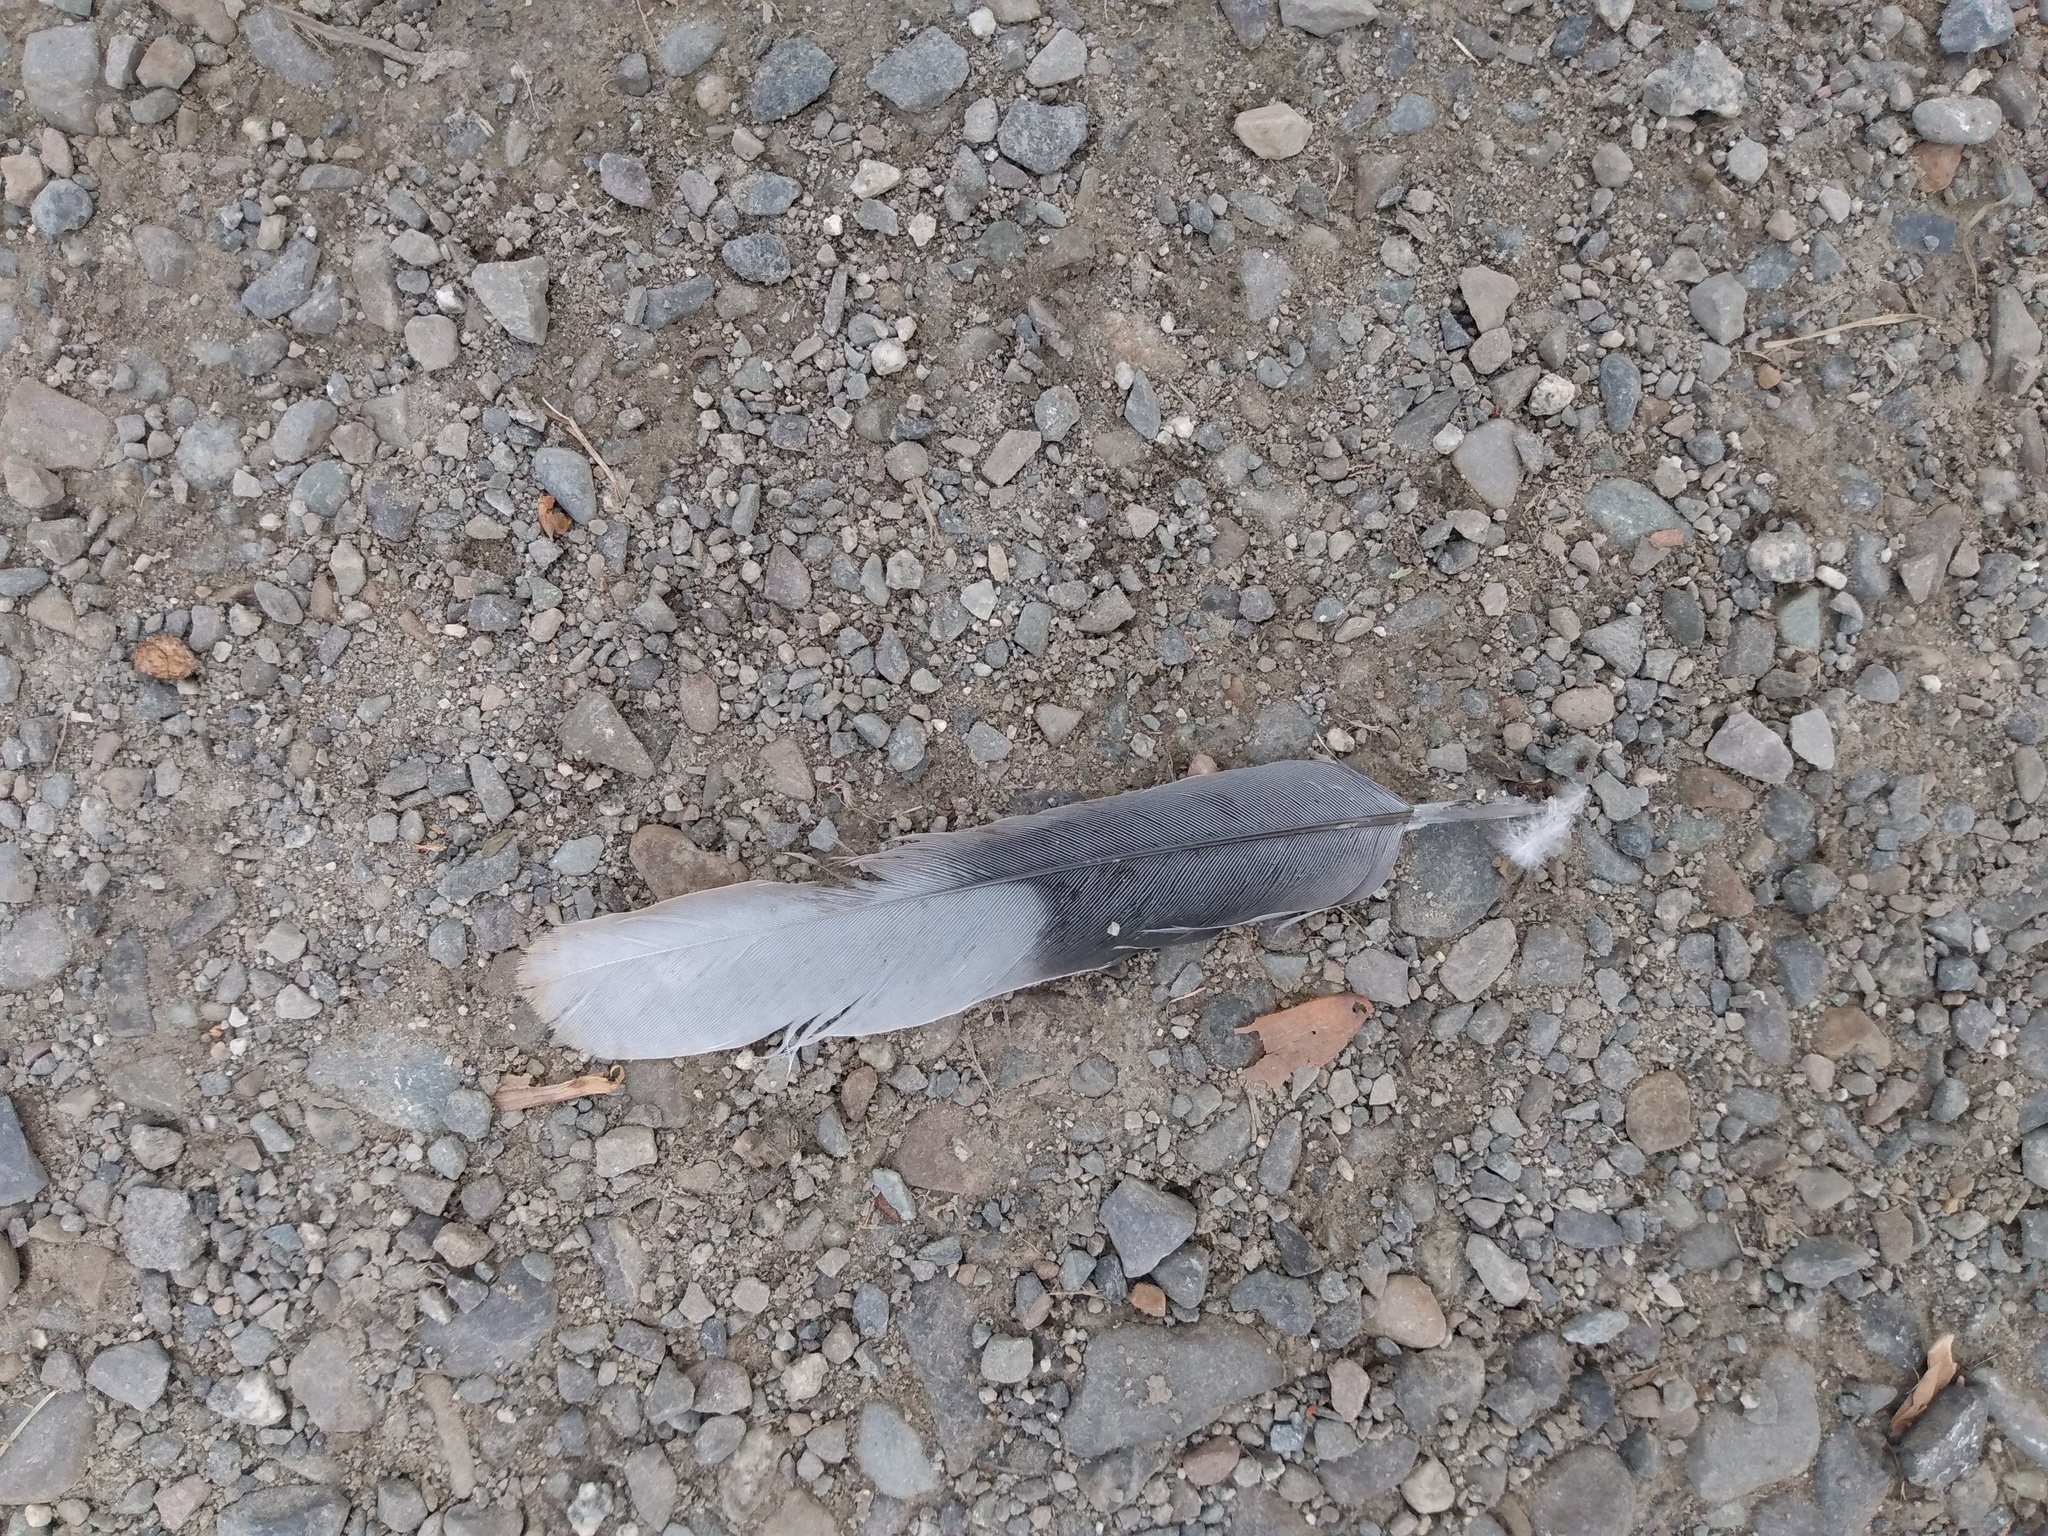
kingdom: Animalia
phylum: Chordata
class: Aves
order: Columbiformes
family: Columbidae
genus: Streptopelia
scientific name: Streptopelia decaocto
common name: Eurasian collared dove
